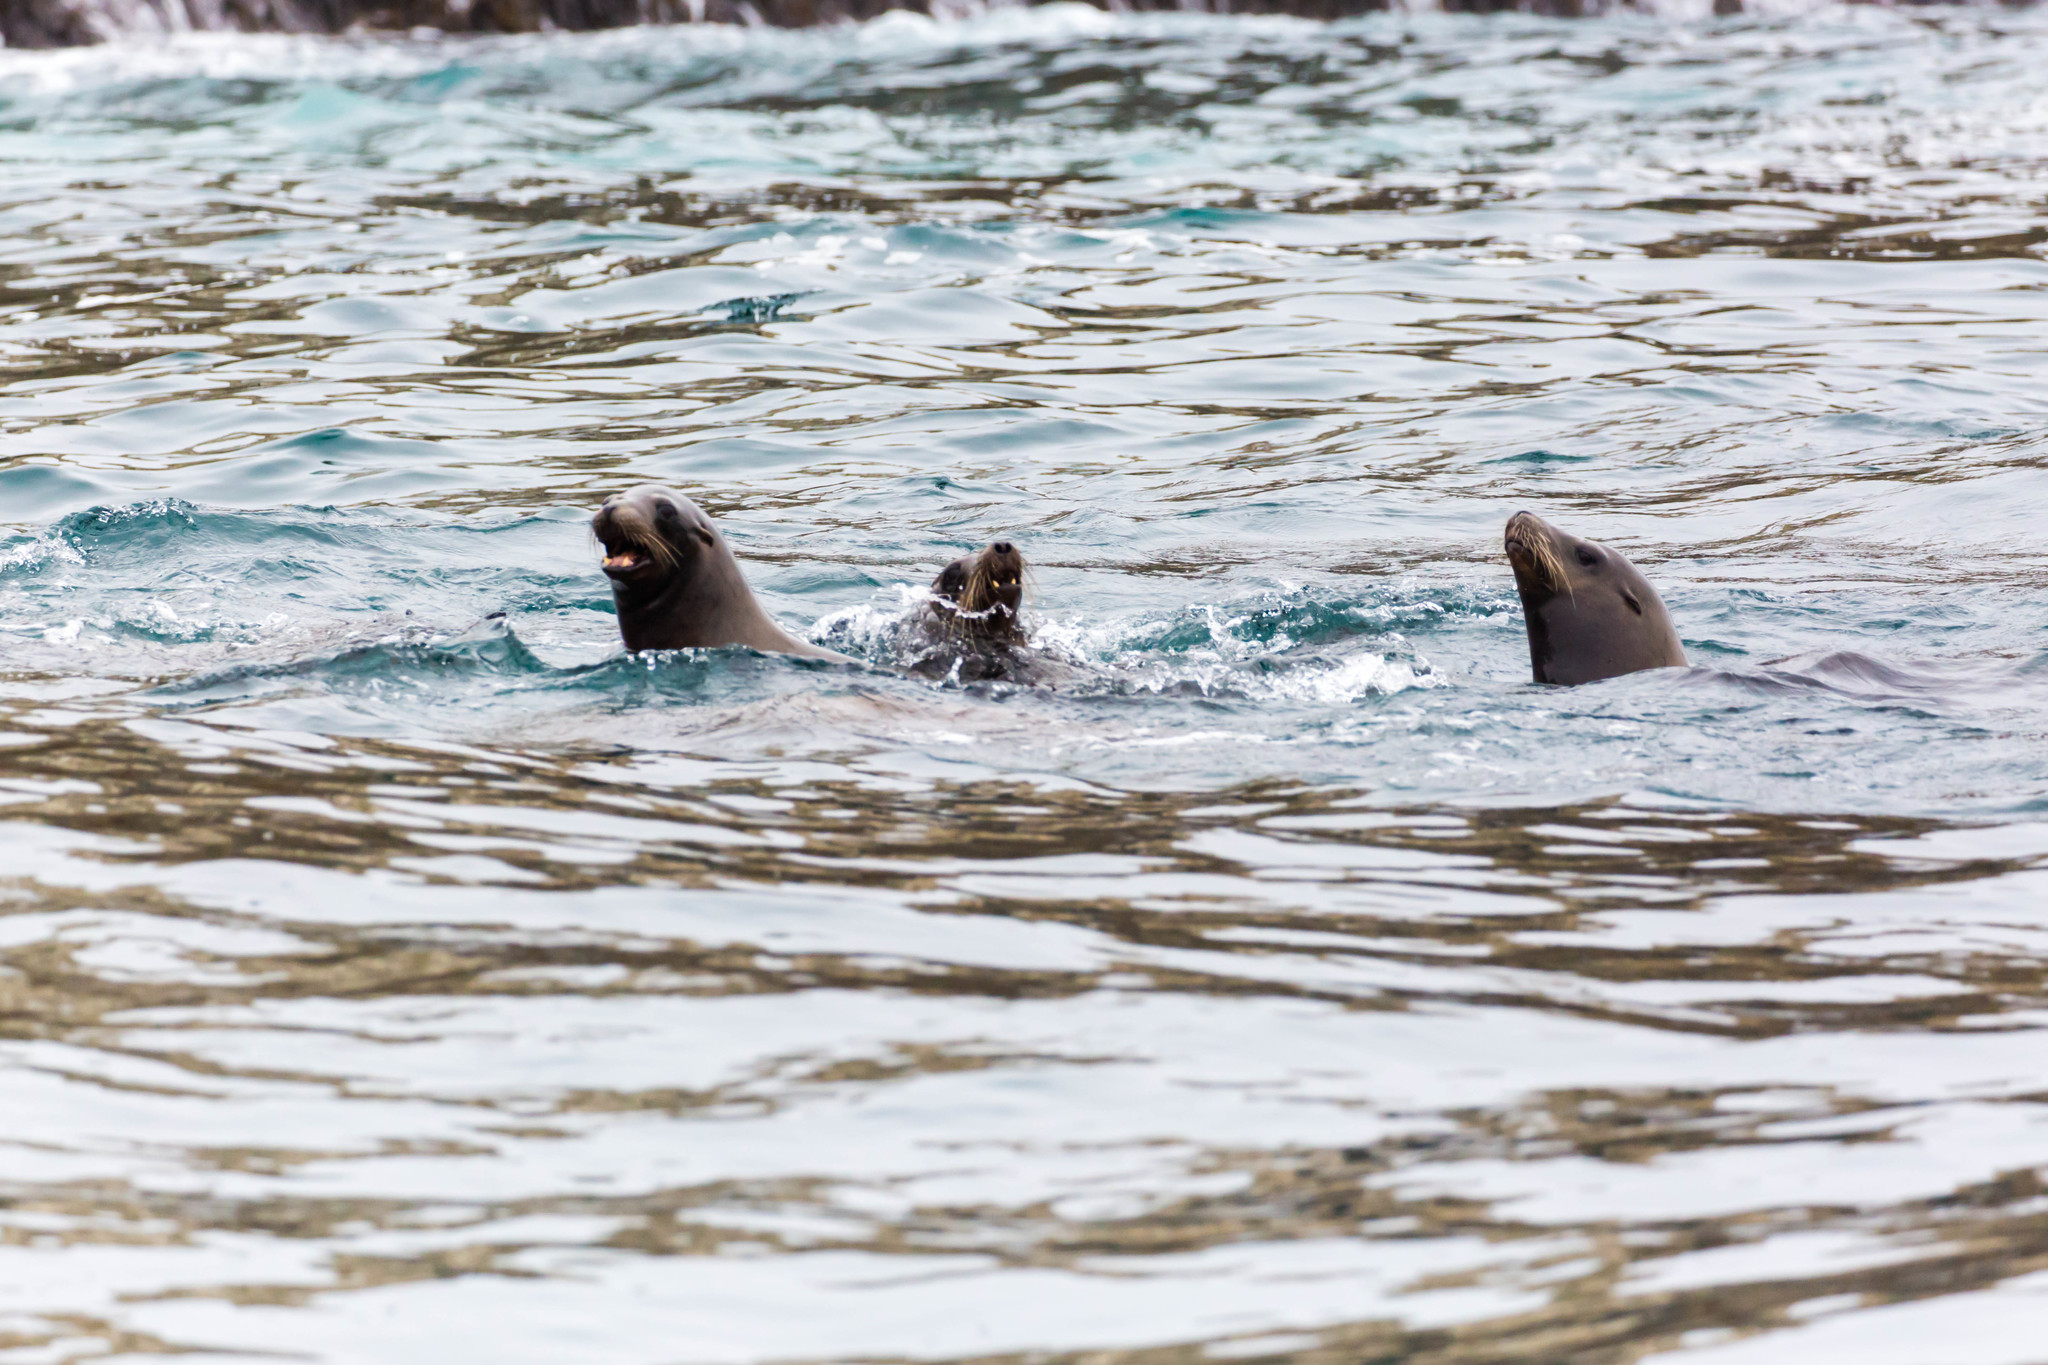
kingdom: Animalia
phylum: Chordata
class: Mammalia
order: Carnivora
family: Otariidae
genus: Zalophus
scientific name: Zalophus californianus
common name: California sea lion
